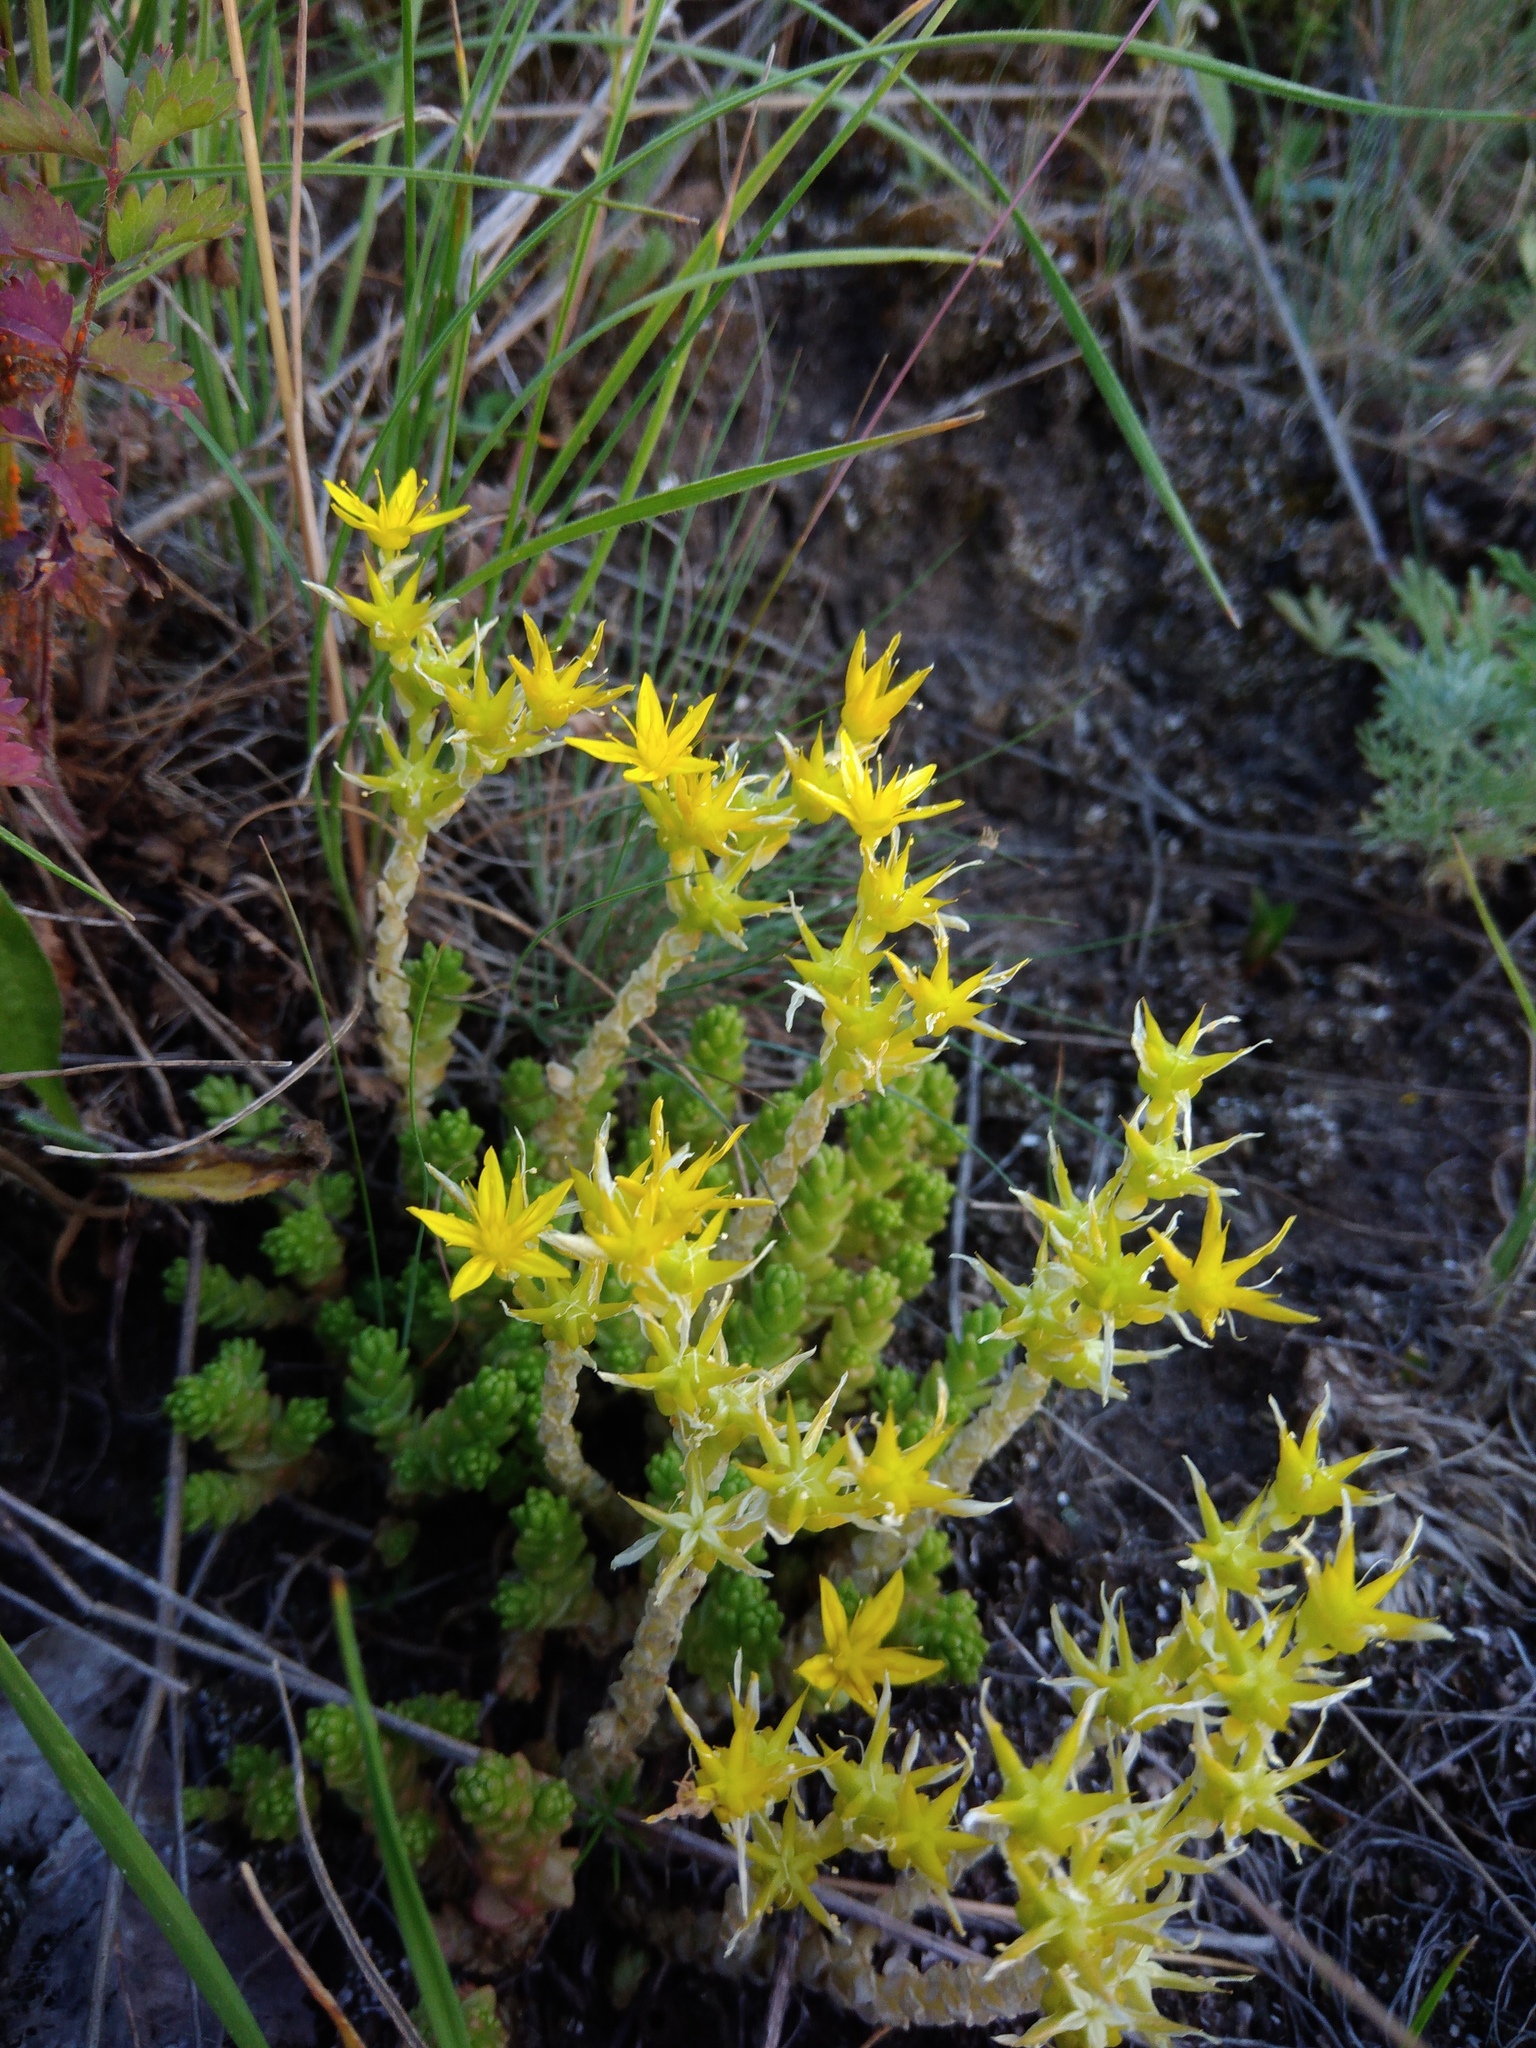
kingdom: Plantae
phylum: Tracheophyta
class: Magnoliopsida
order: Saxifragales
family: Crassulaceae
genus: Sedum
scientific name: Sedum acre
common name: Biting stonecrop
